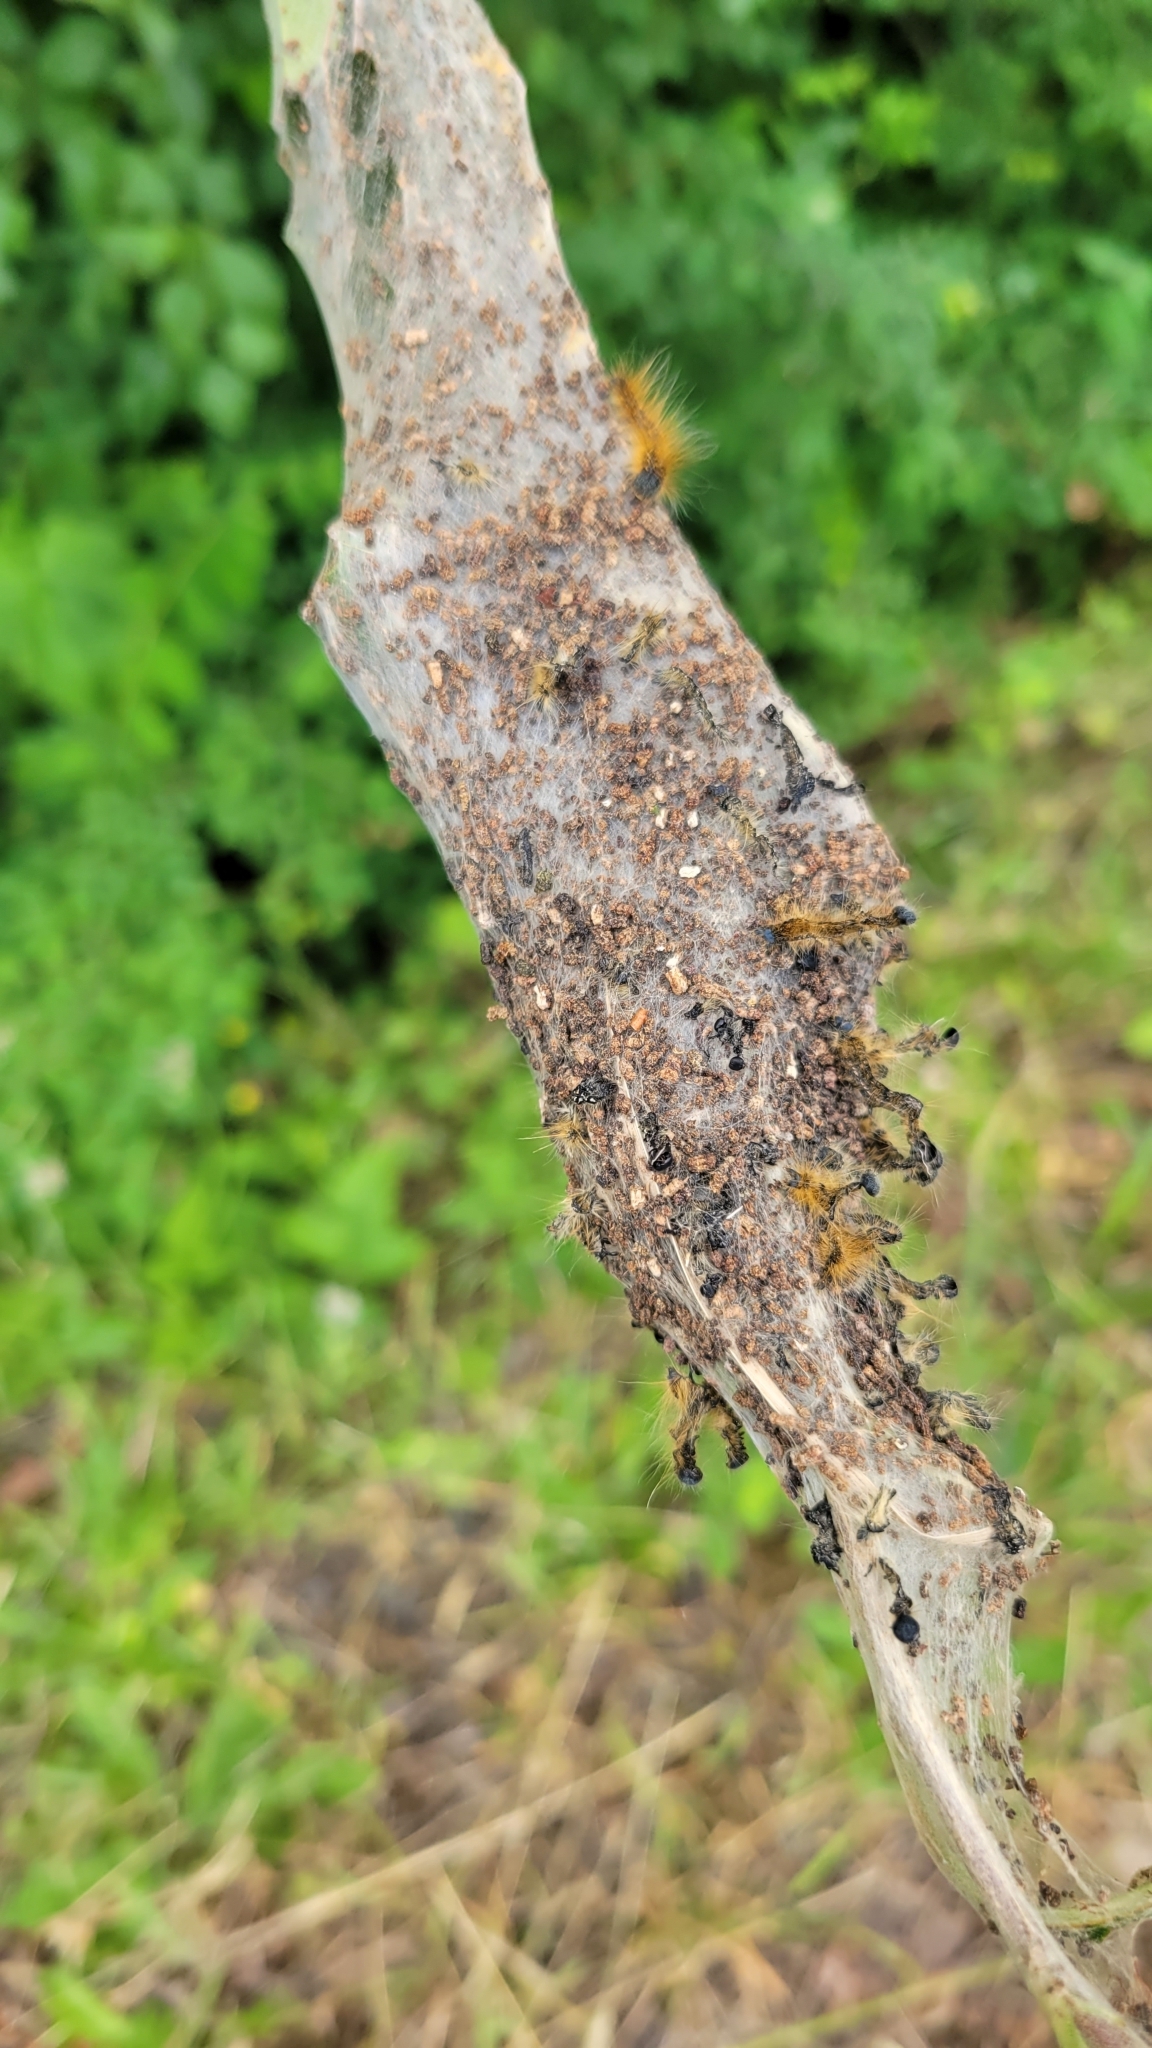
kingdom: Animalia
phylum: Arthropoda
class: Insecta
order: Lepidoptera
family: Lasiocampidae
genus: Malacosoma
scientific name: Malacosoma californica
